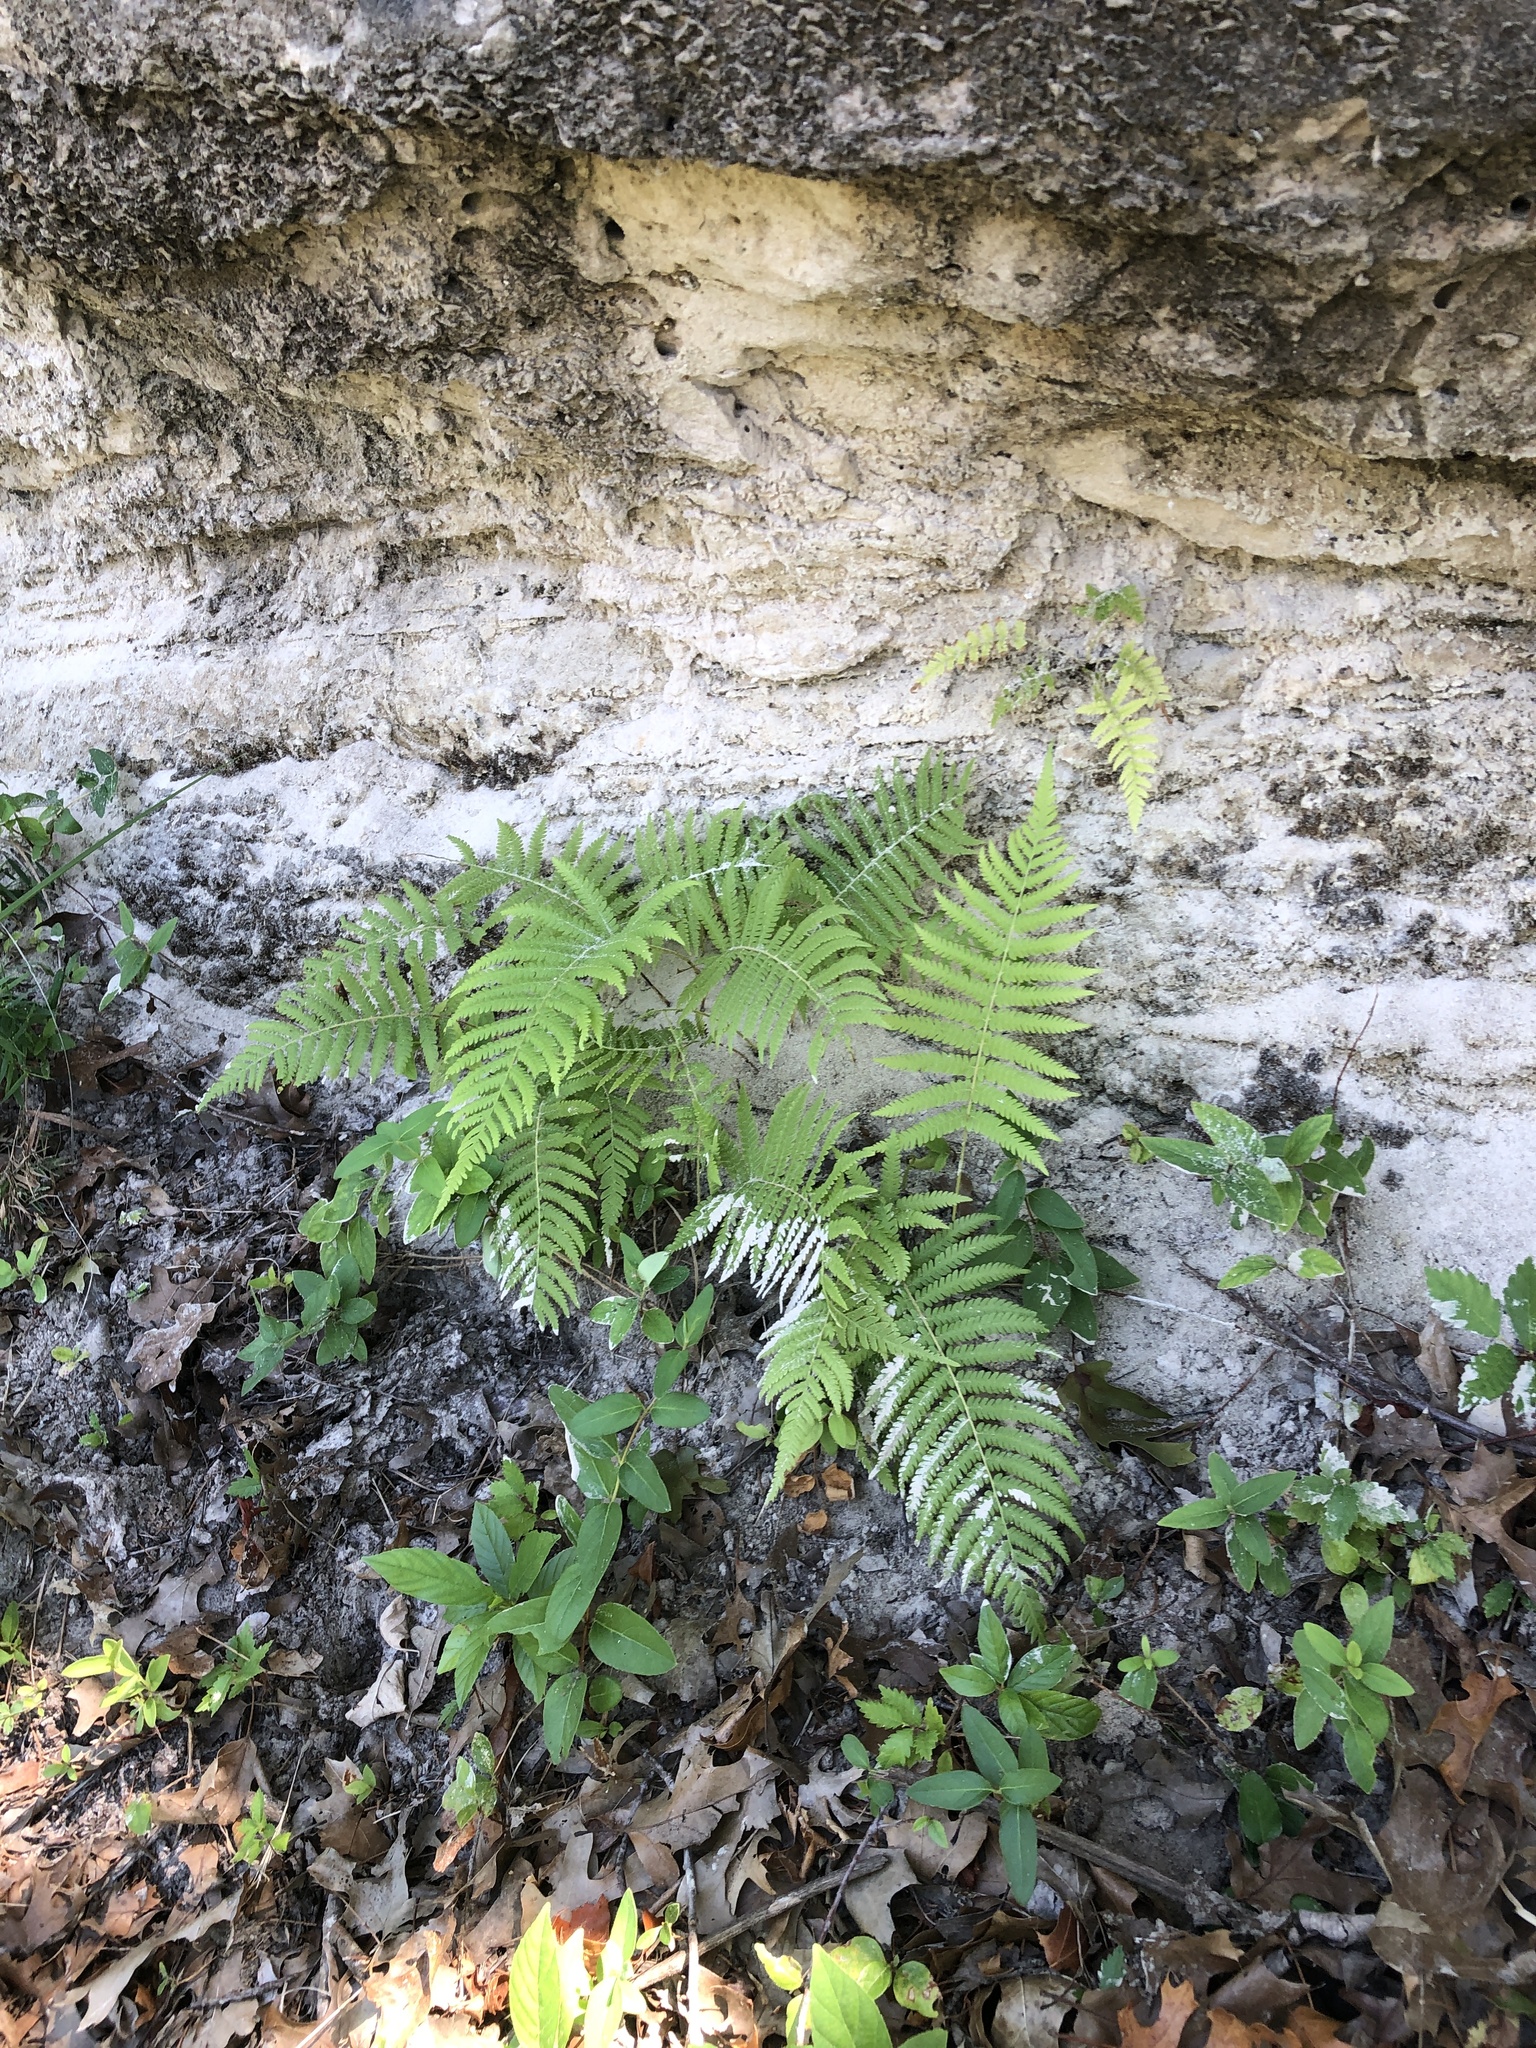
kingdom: Plantae
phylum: Tracheophyta
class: Polypodiopsida
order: Polypodiales
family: Thelypteridaceae
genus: Pelazoneuron
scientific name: Pelazoneuron kunthii
